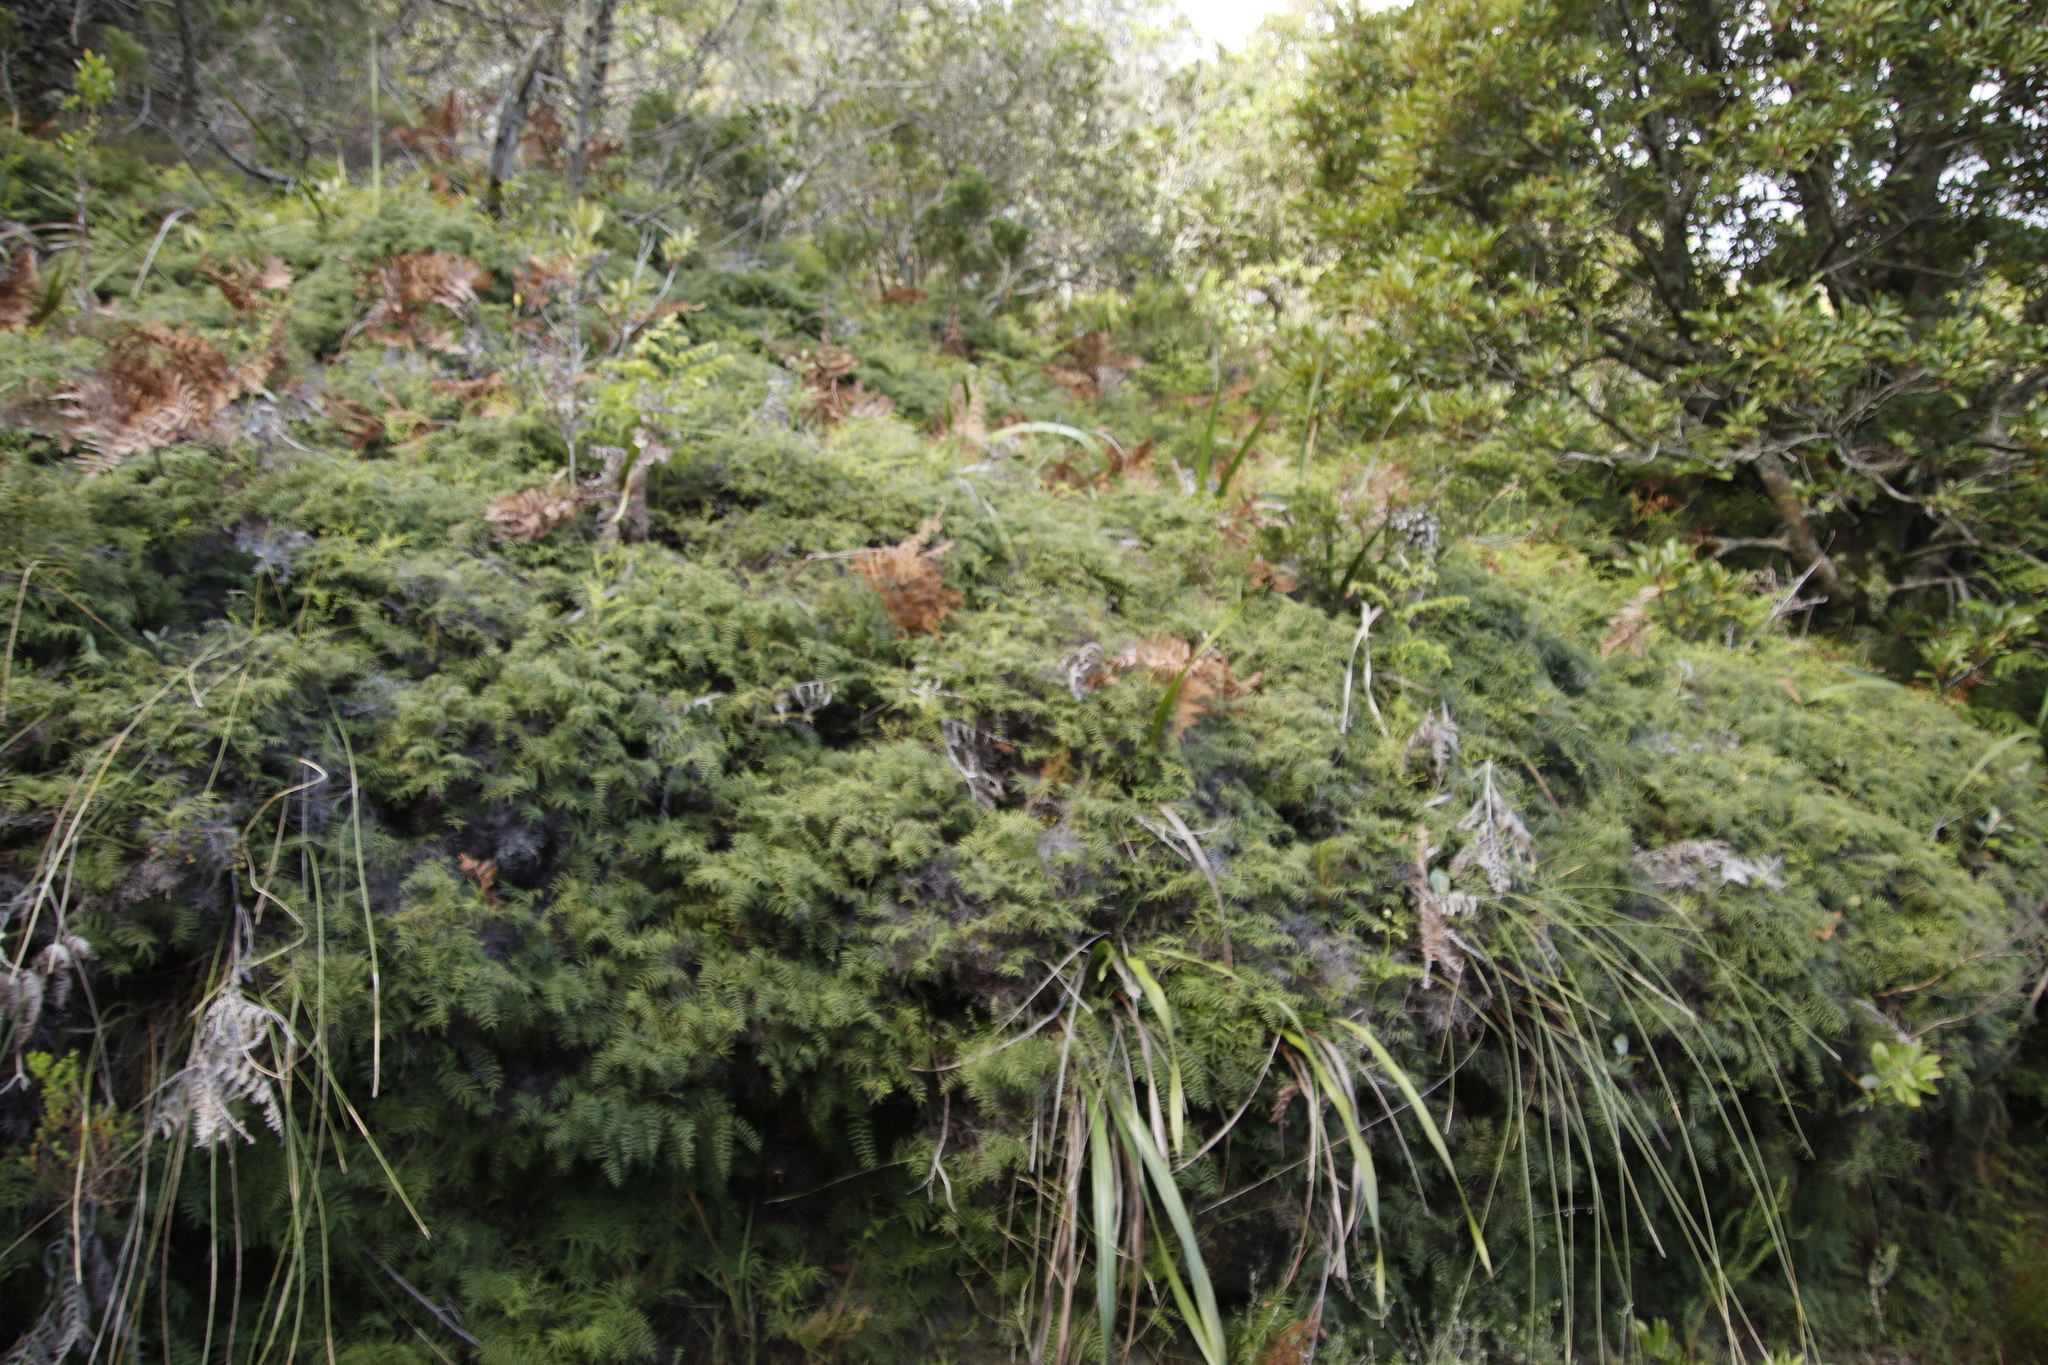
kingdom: Plantae
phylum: Tracheophyta
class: Polypodiopsida
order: Gleicheniales
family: Gleicheniaceae
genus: Gleichenia
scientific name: Gleichenia polypodioides
